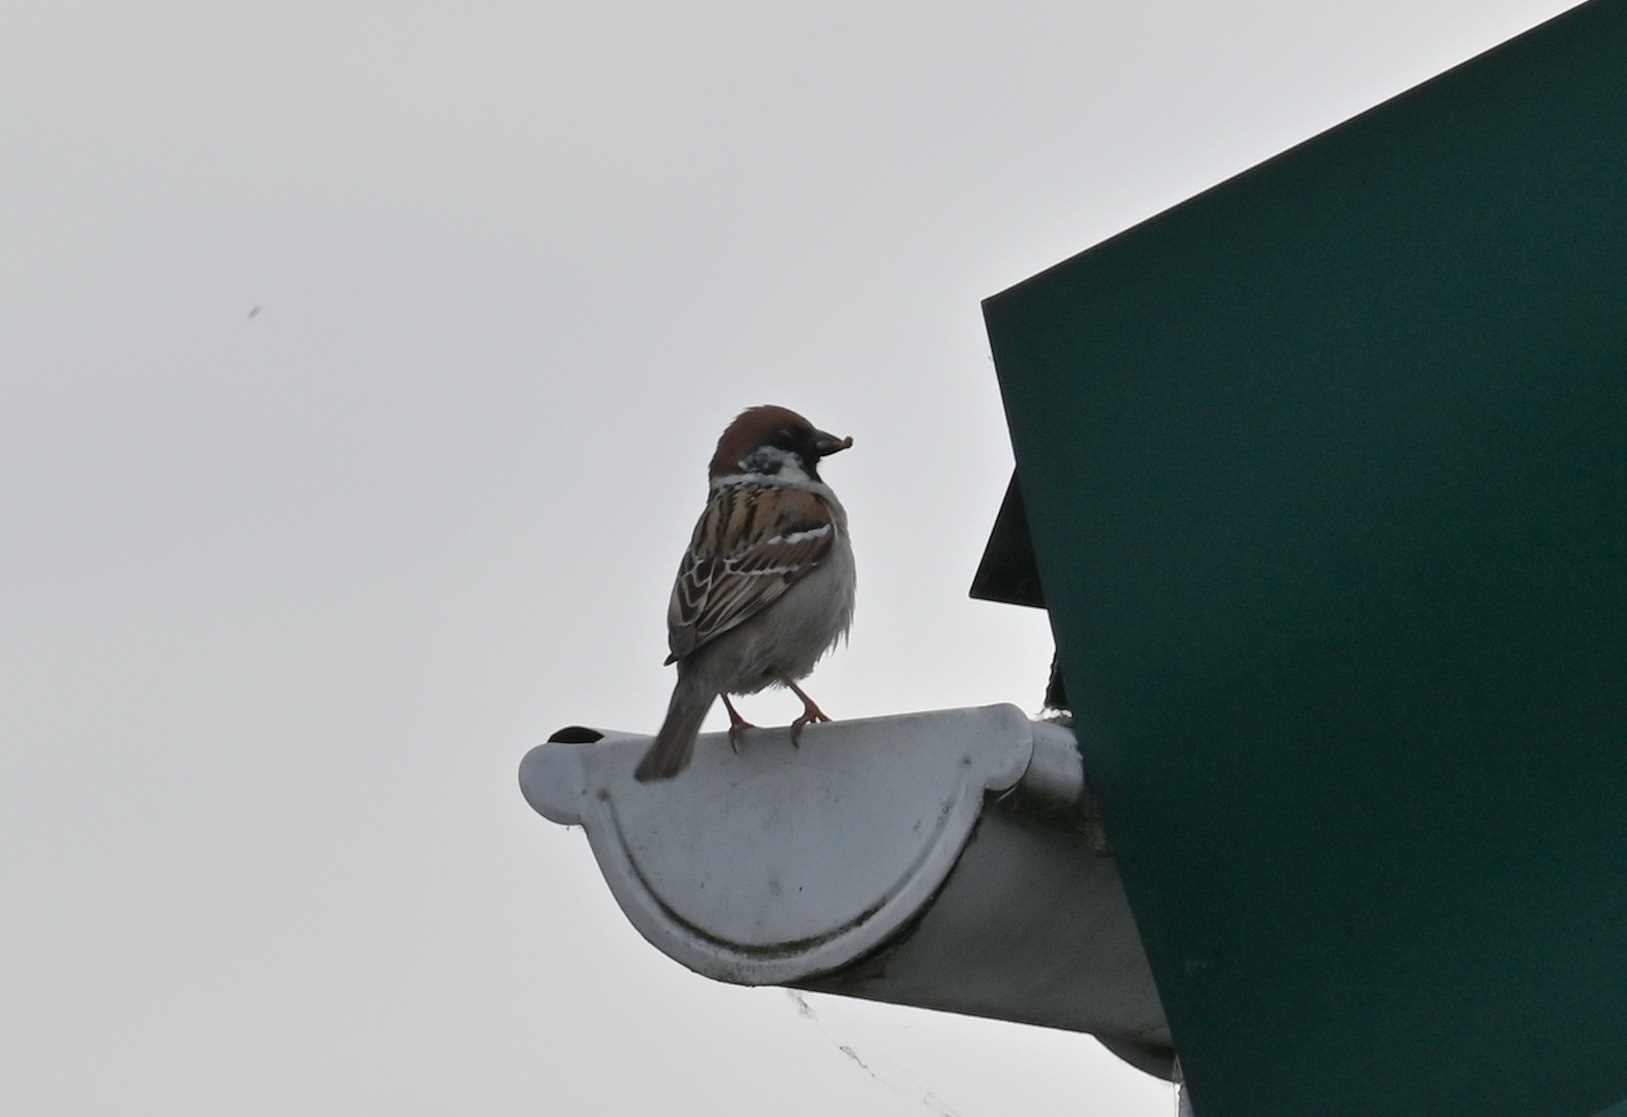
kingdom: Animalia
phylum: Chordata
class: Aves
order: Passeriformes
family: Passeridae
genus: Passer
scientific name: Passer montanus
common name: Eurasian tree sparrow
